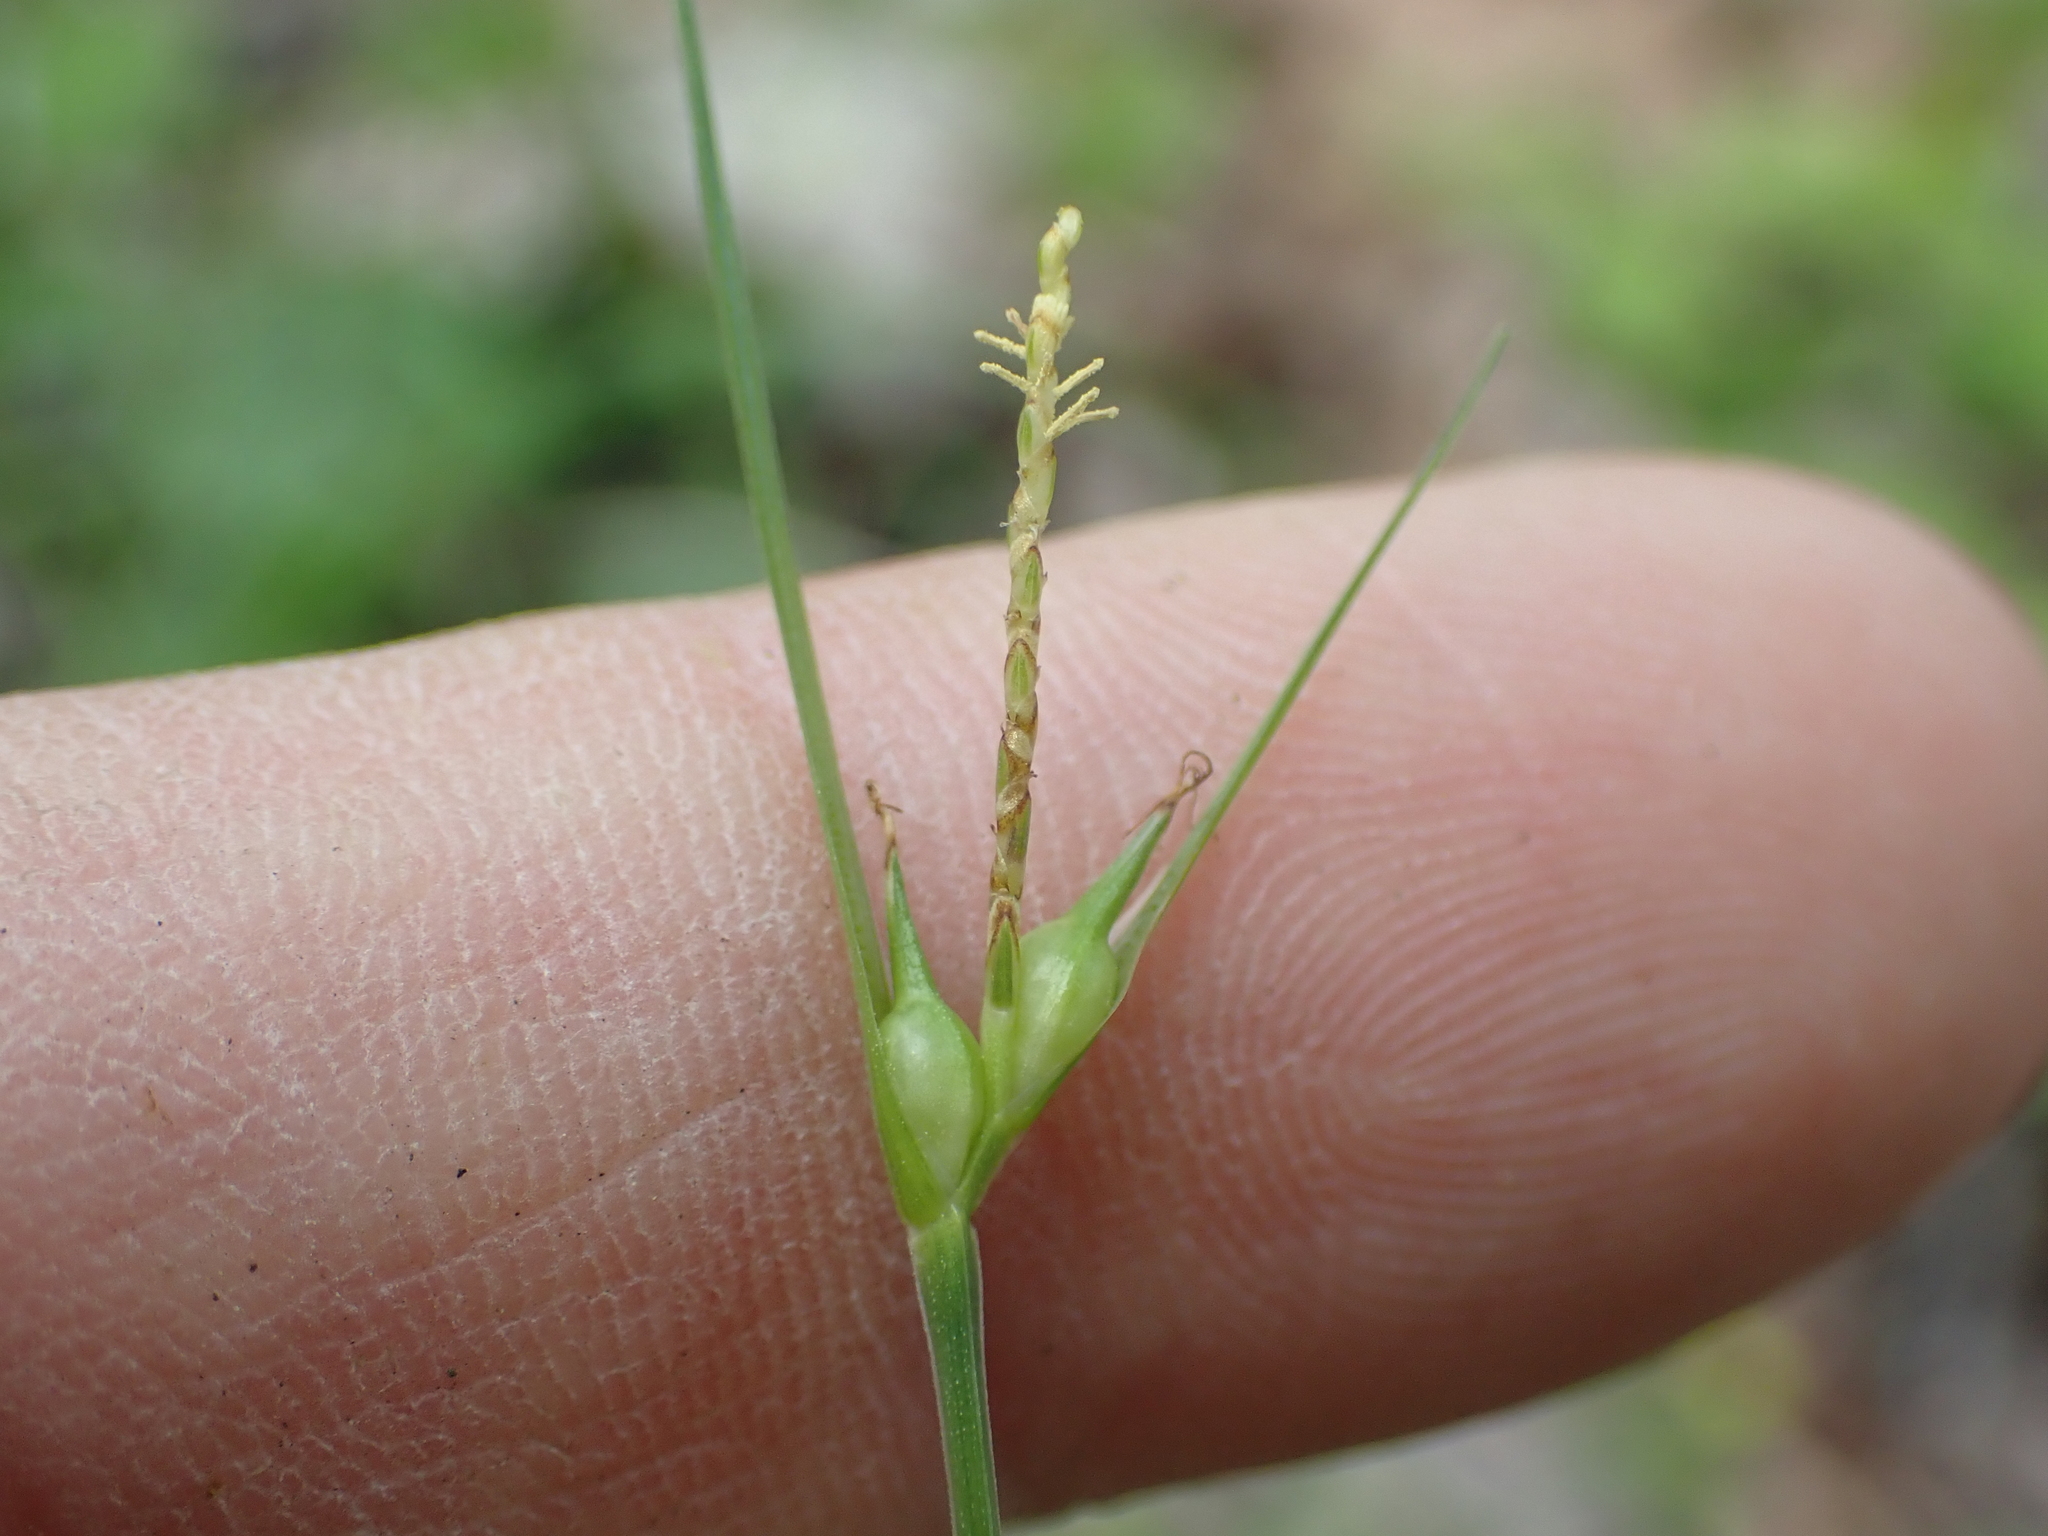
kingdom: Plantae
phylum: Tracheophyta
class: Liliopsida
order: Poales
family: Cyperaceae
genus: Carex
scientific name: Carex jamesii
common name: Grass sedge
